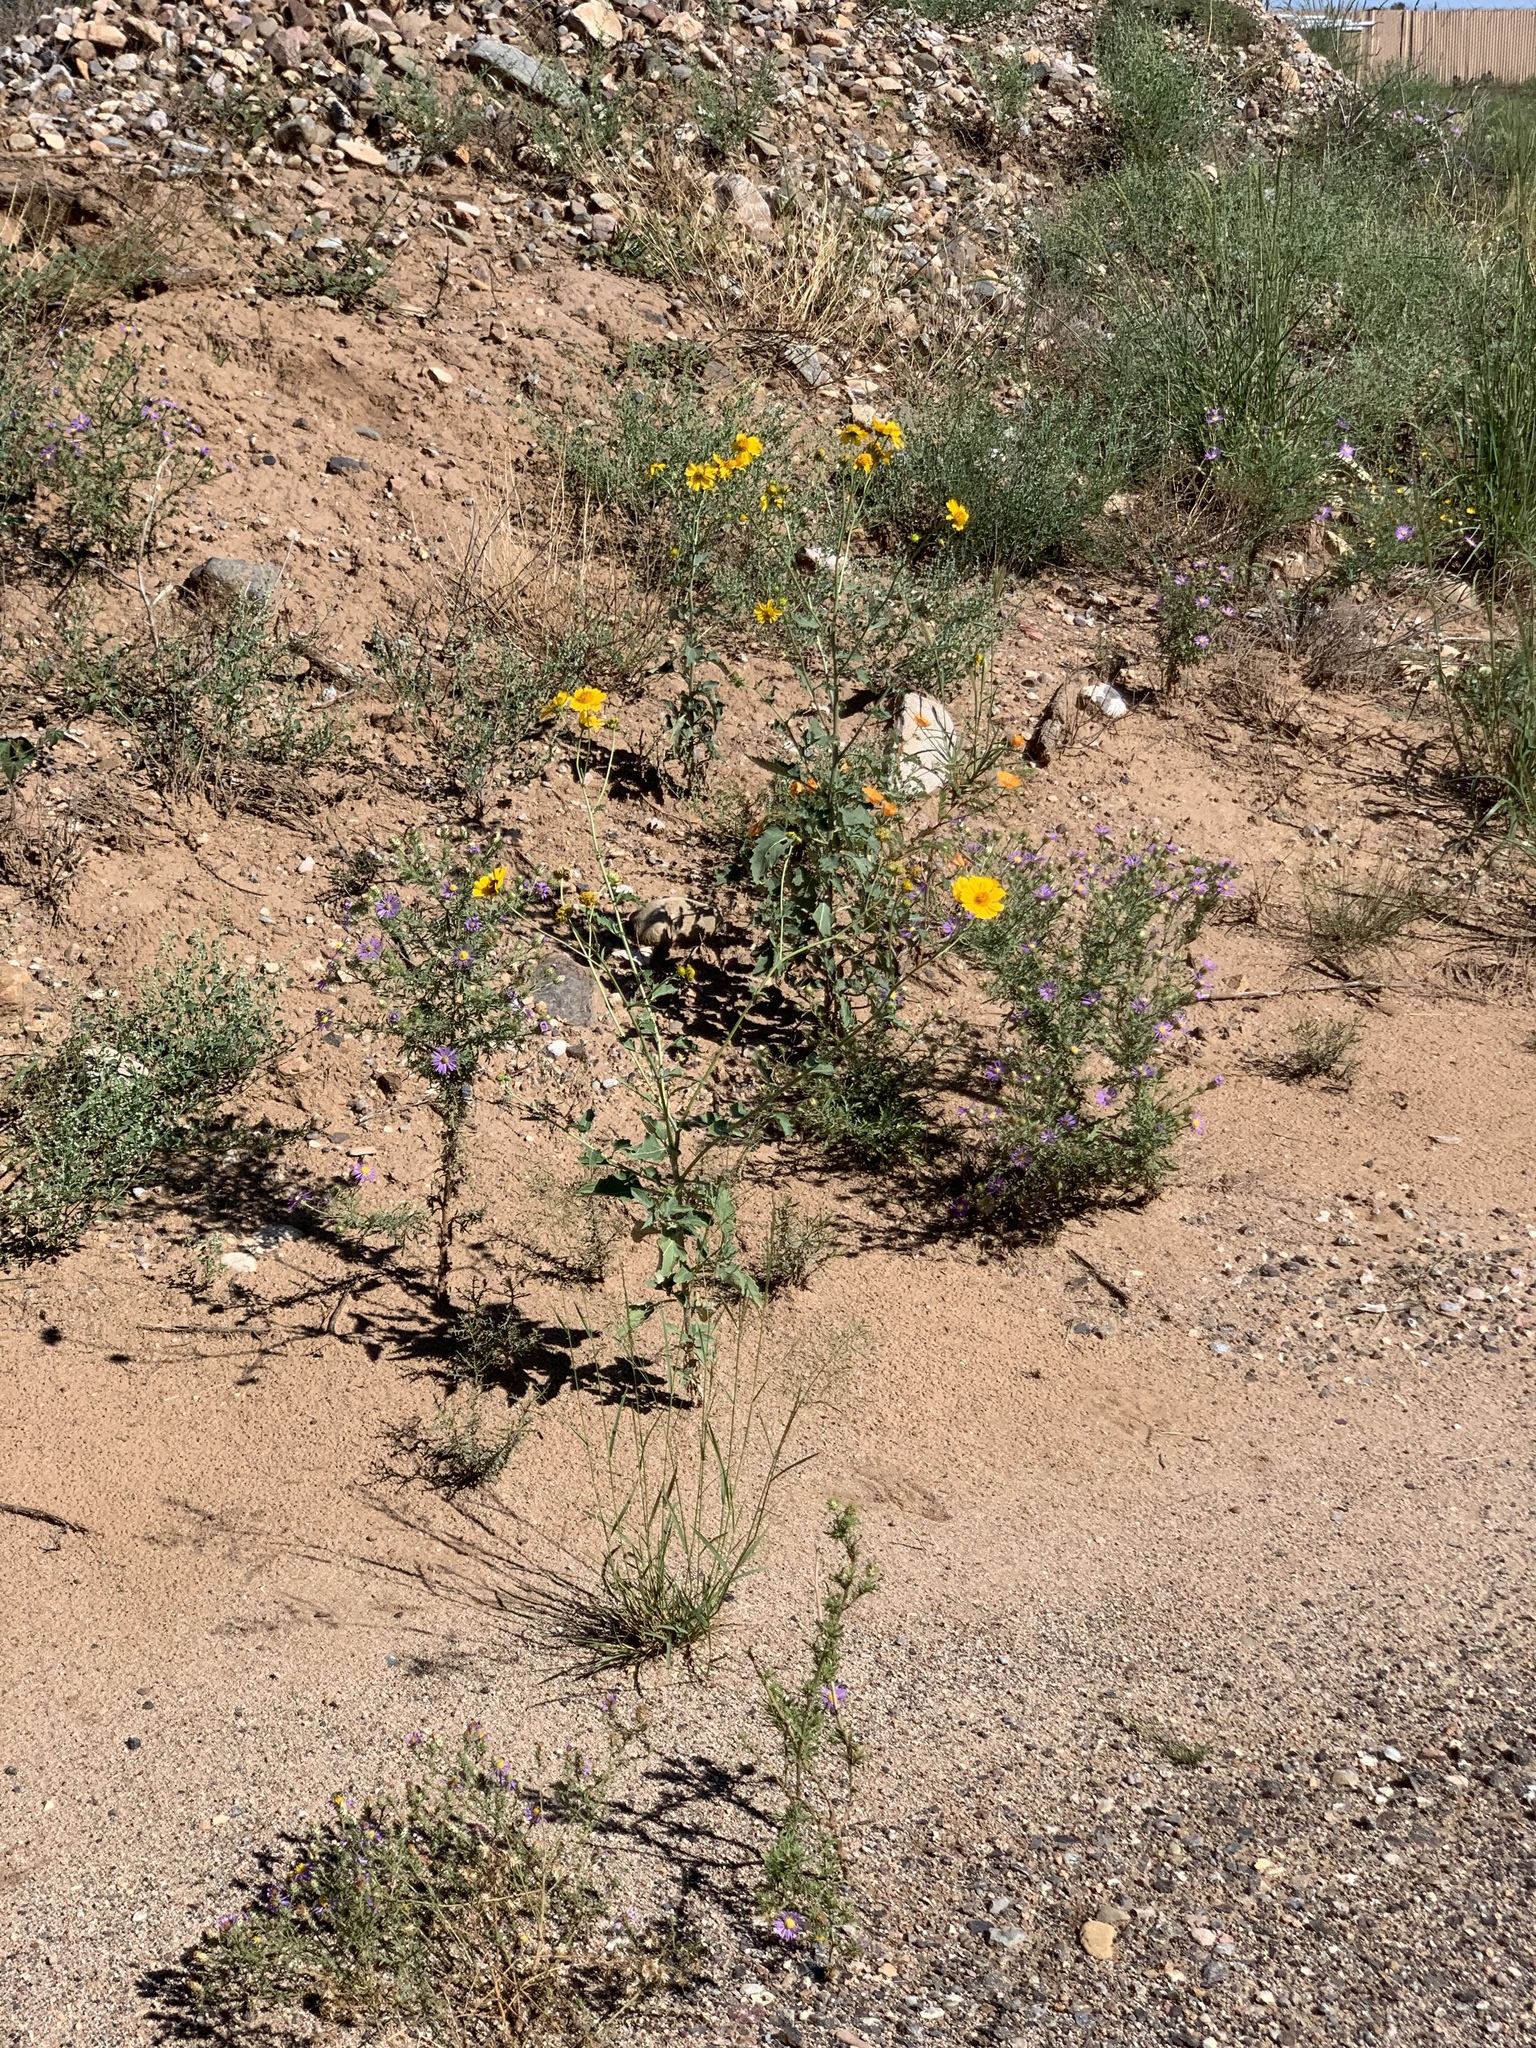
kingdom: Plantae
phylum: Tracheophyta
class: Magnoliopsida
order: Asterales
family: Asteraceae
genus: Verbesina
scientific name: Verbesina encelioides
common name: Golden crownbeard
